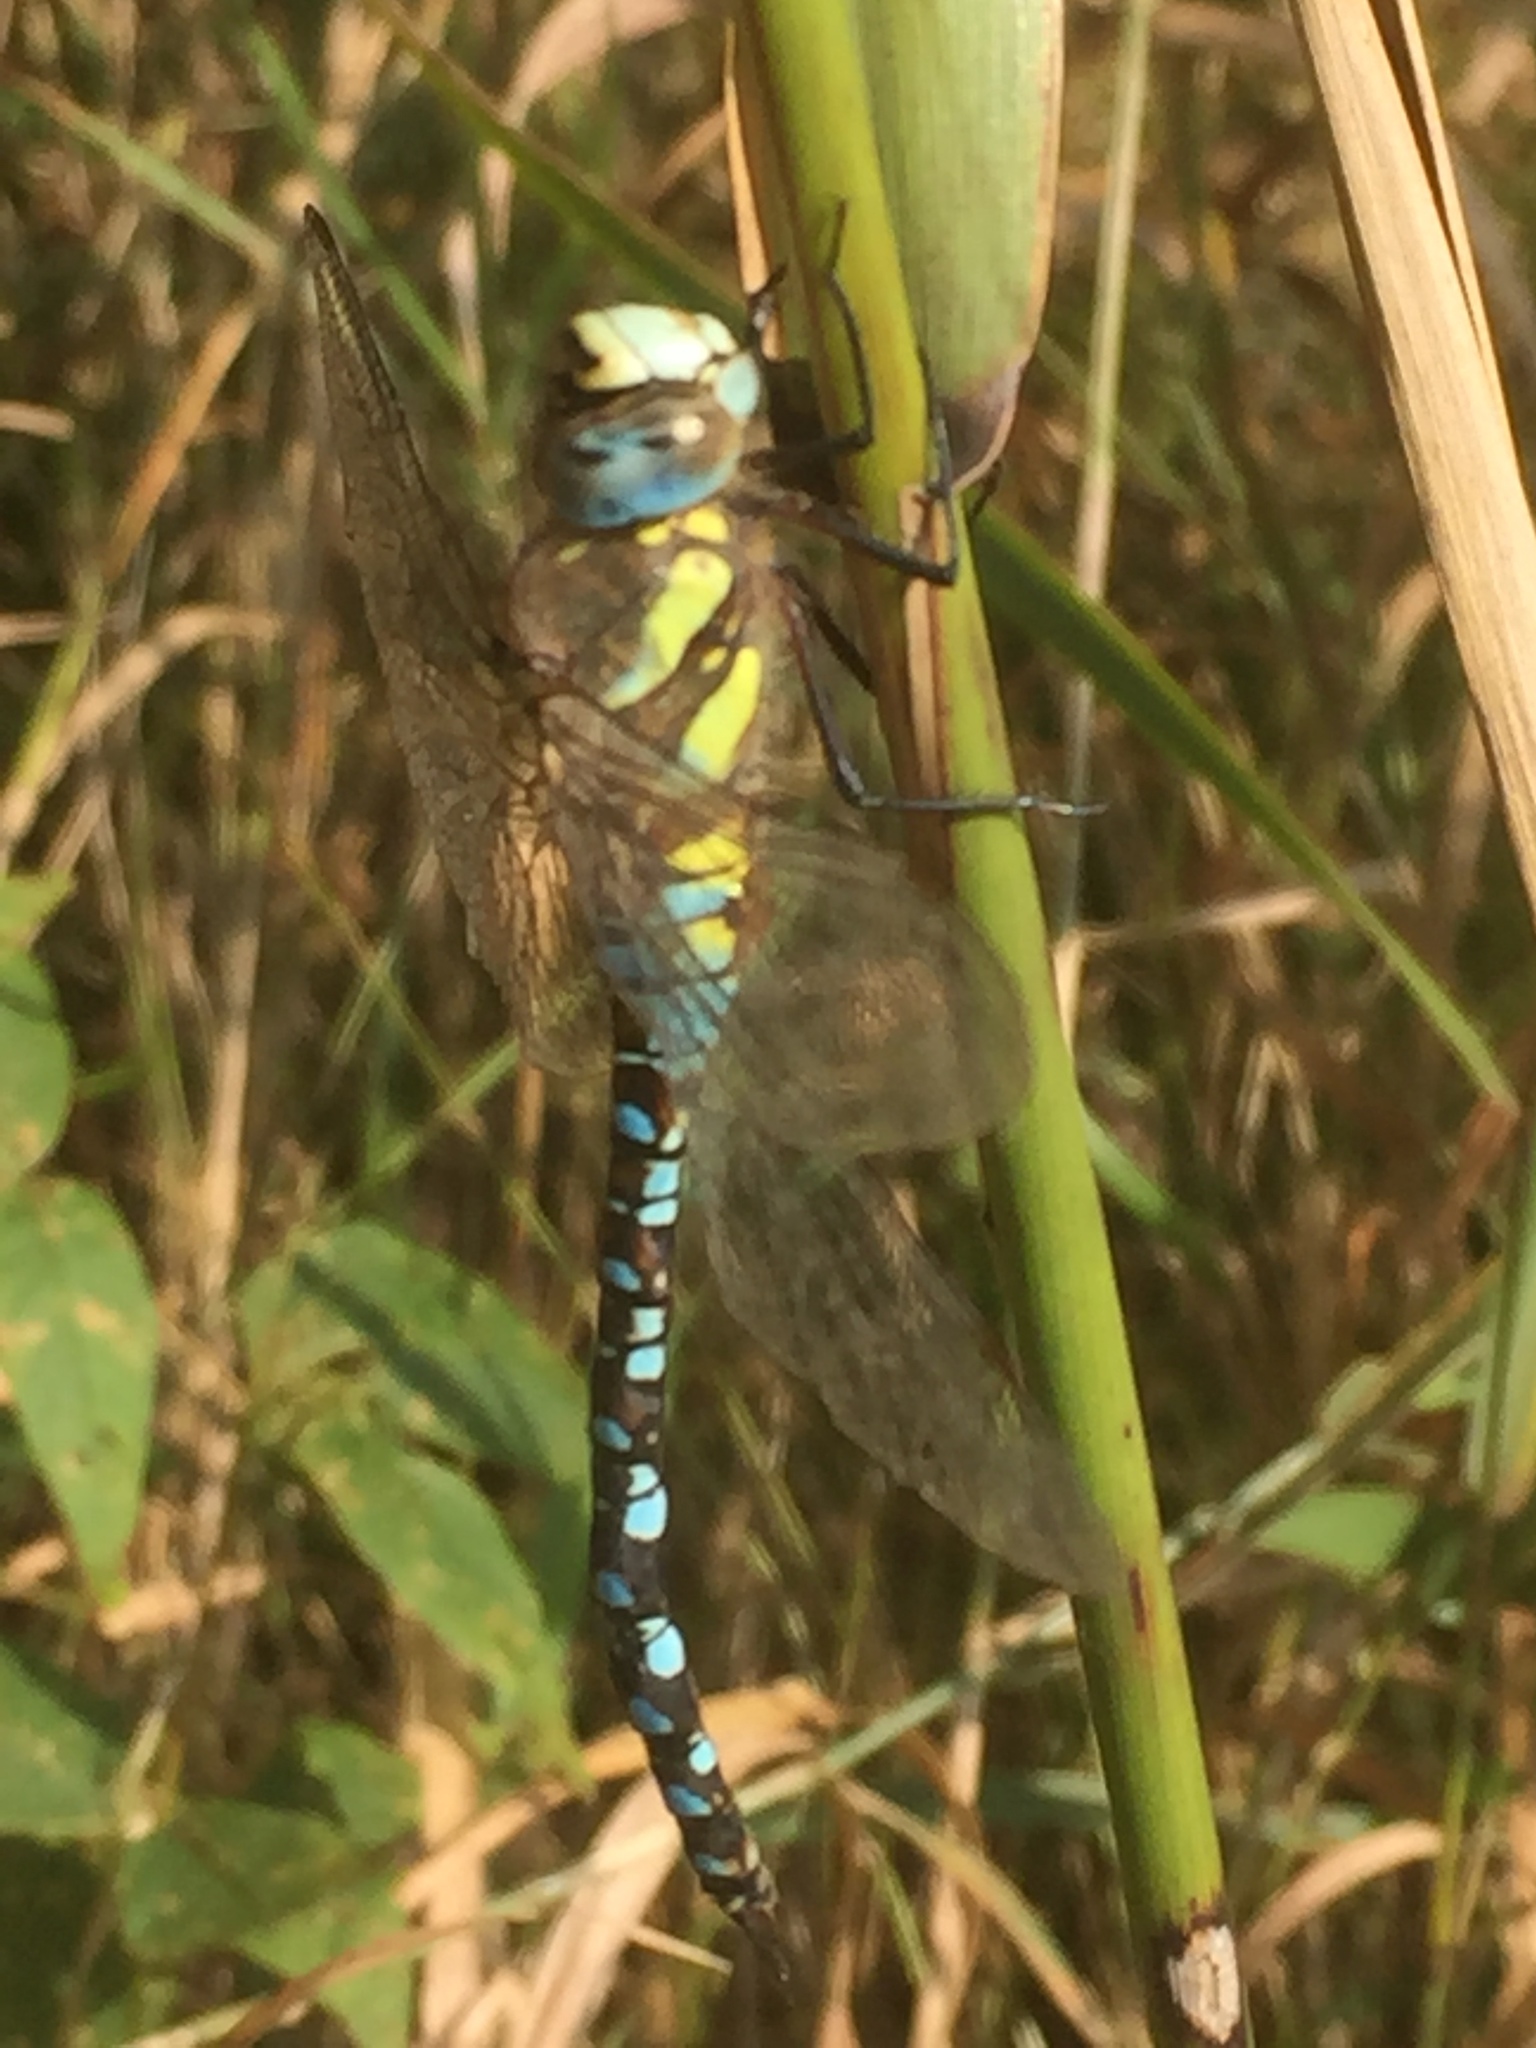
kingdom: Animalia
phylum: Arthropoda
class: Insecta
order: Odonata
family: Aeshnidae
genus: Aeshna
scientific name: Aeshna mixta
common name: Migrant hawker
